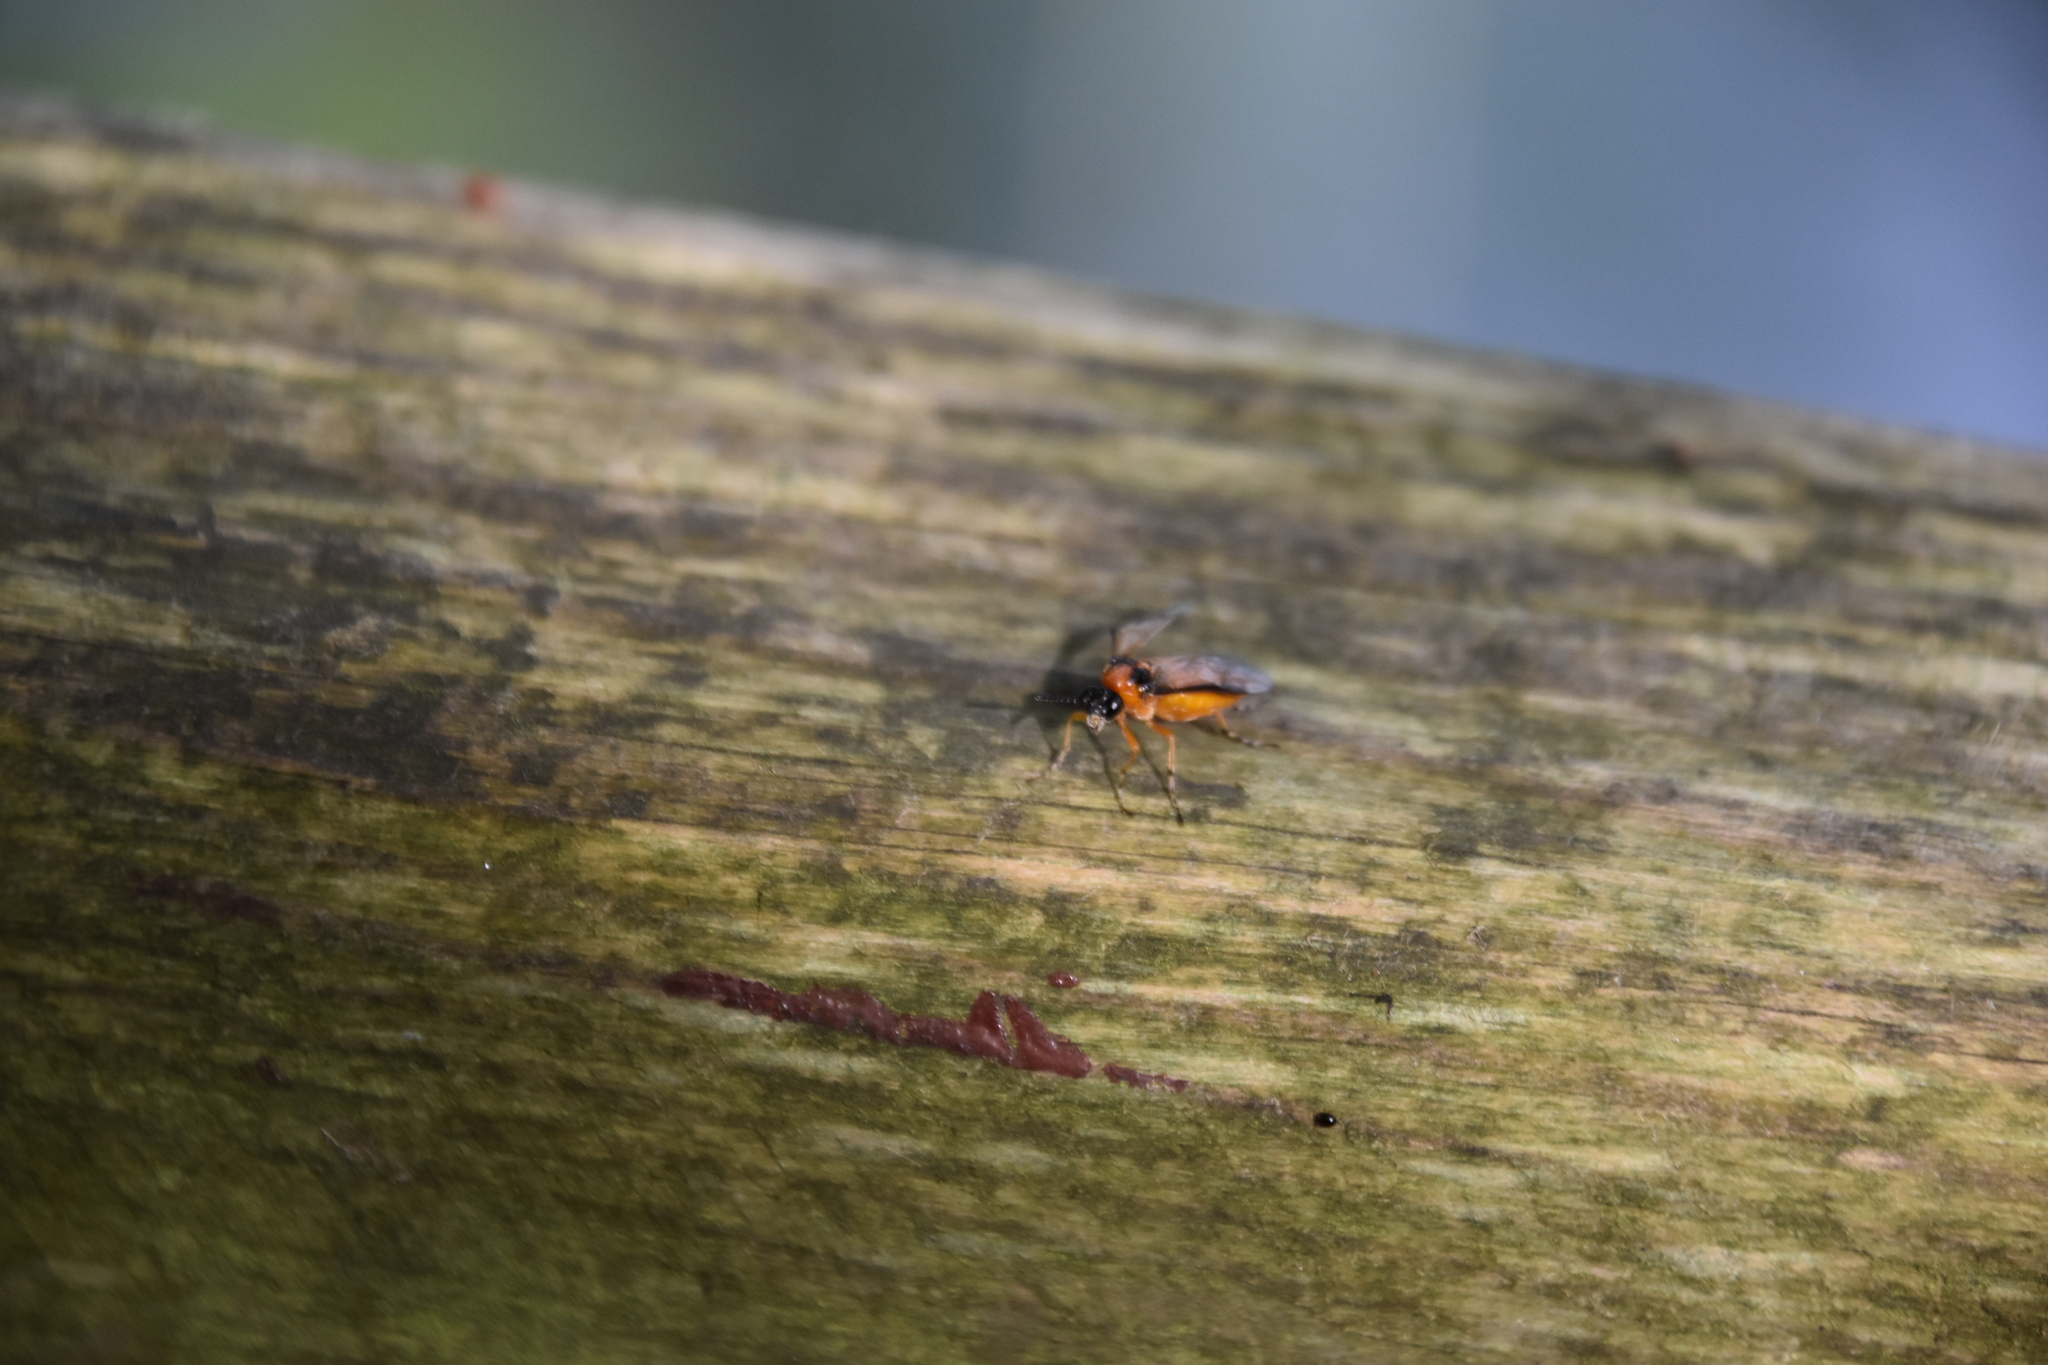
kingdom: Animalia
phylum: Arthropoda
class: Insecta
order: Hymenoptera
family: Tenthredinidae
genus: Athalia
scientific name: Athalia rosae
